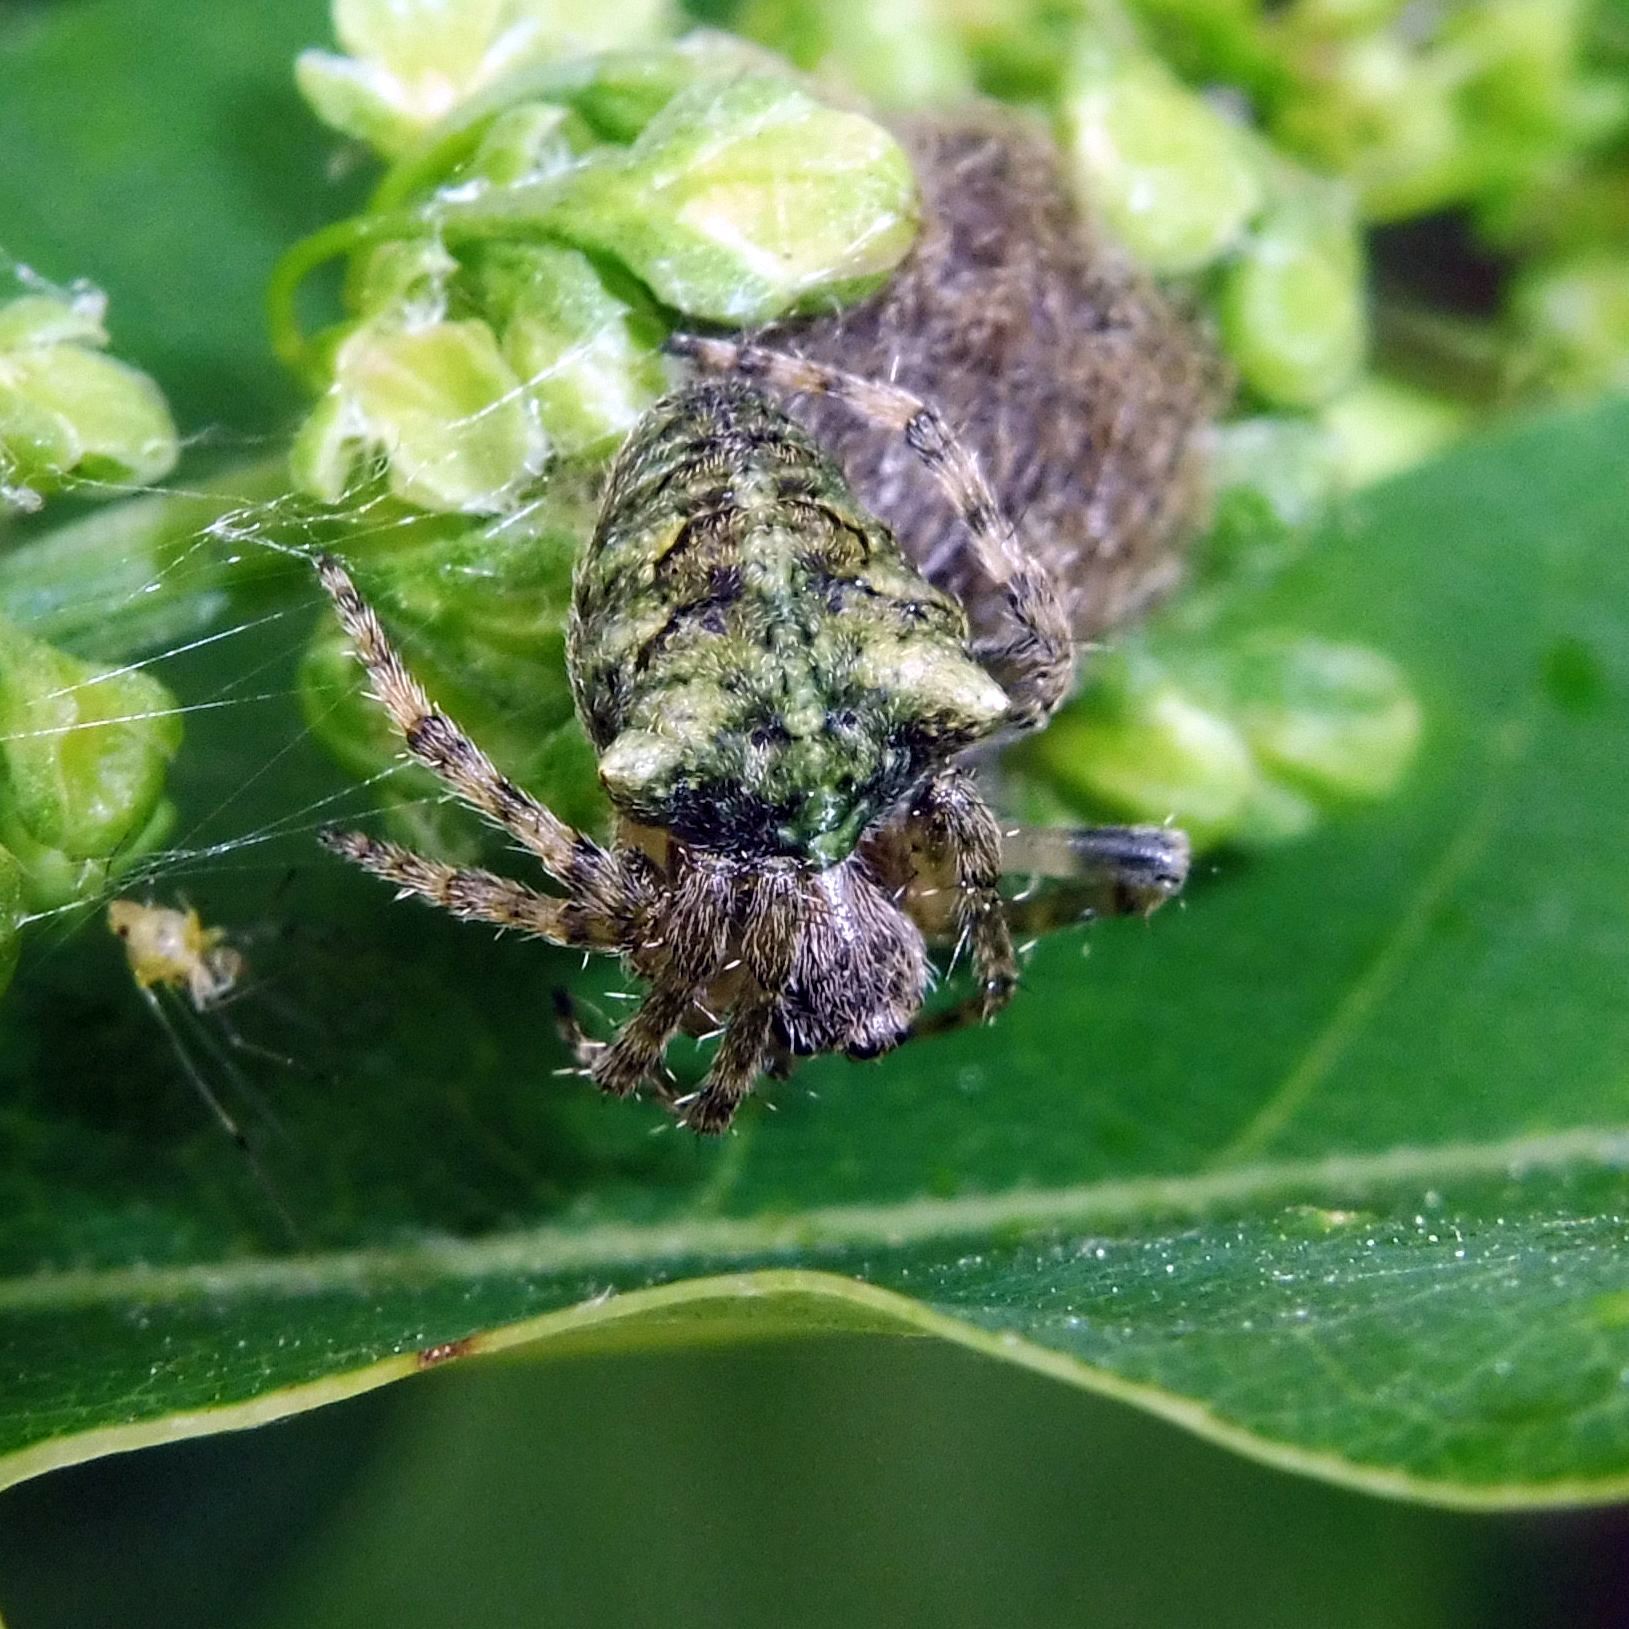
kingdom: Animalia
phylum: Arthropoda
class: Arachnida
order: Araneae
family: Araneidae
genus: Gibbaranea
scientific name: Gibbaranea gibbosa
